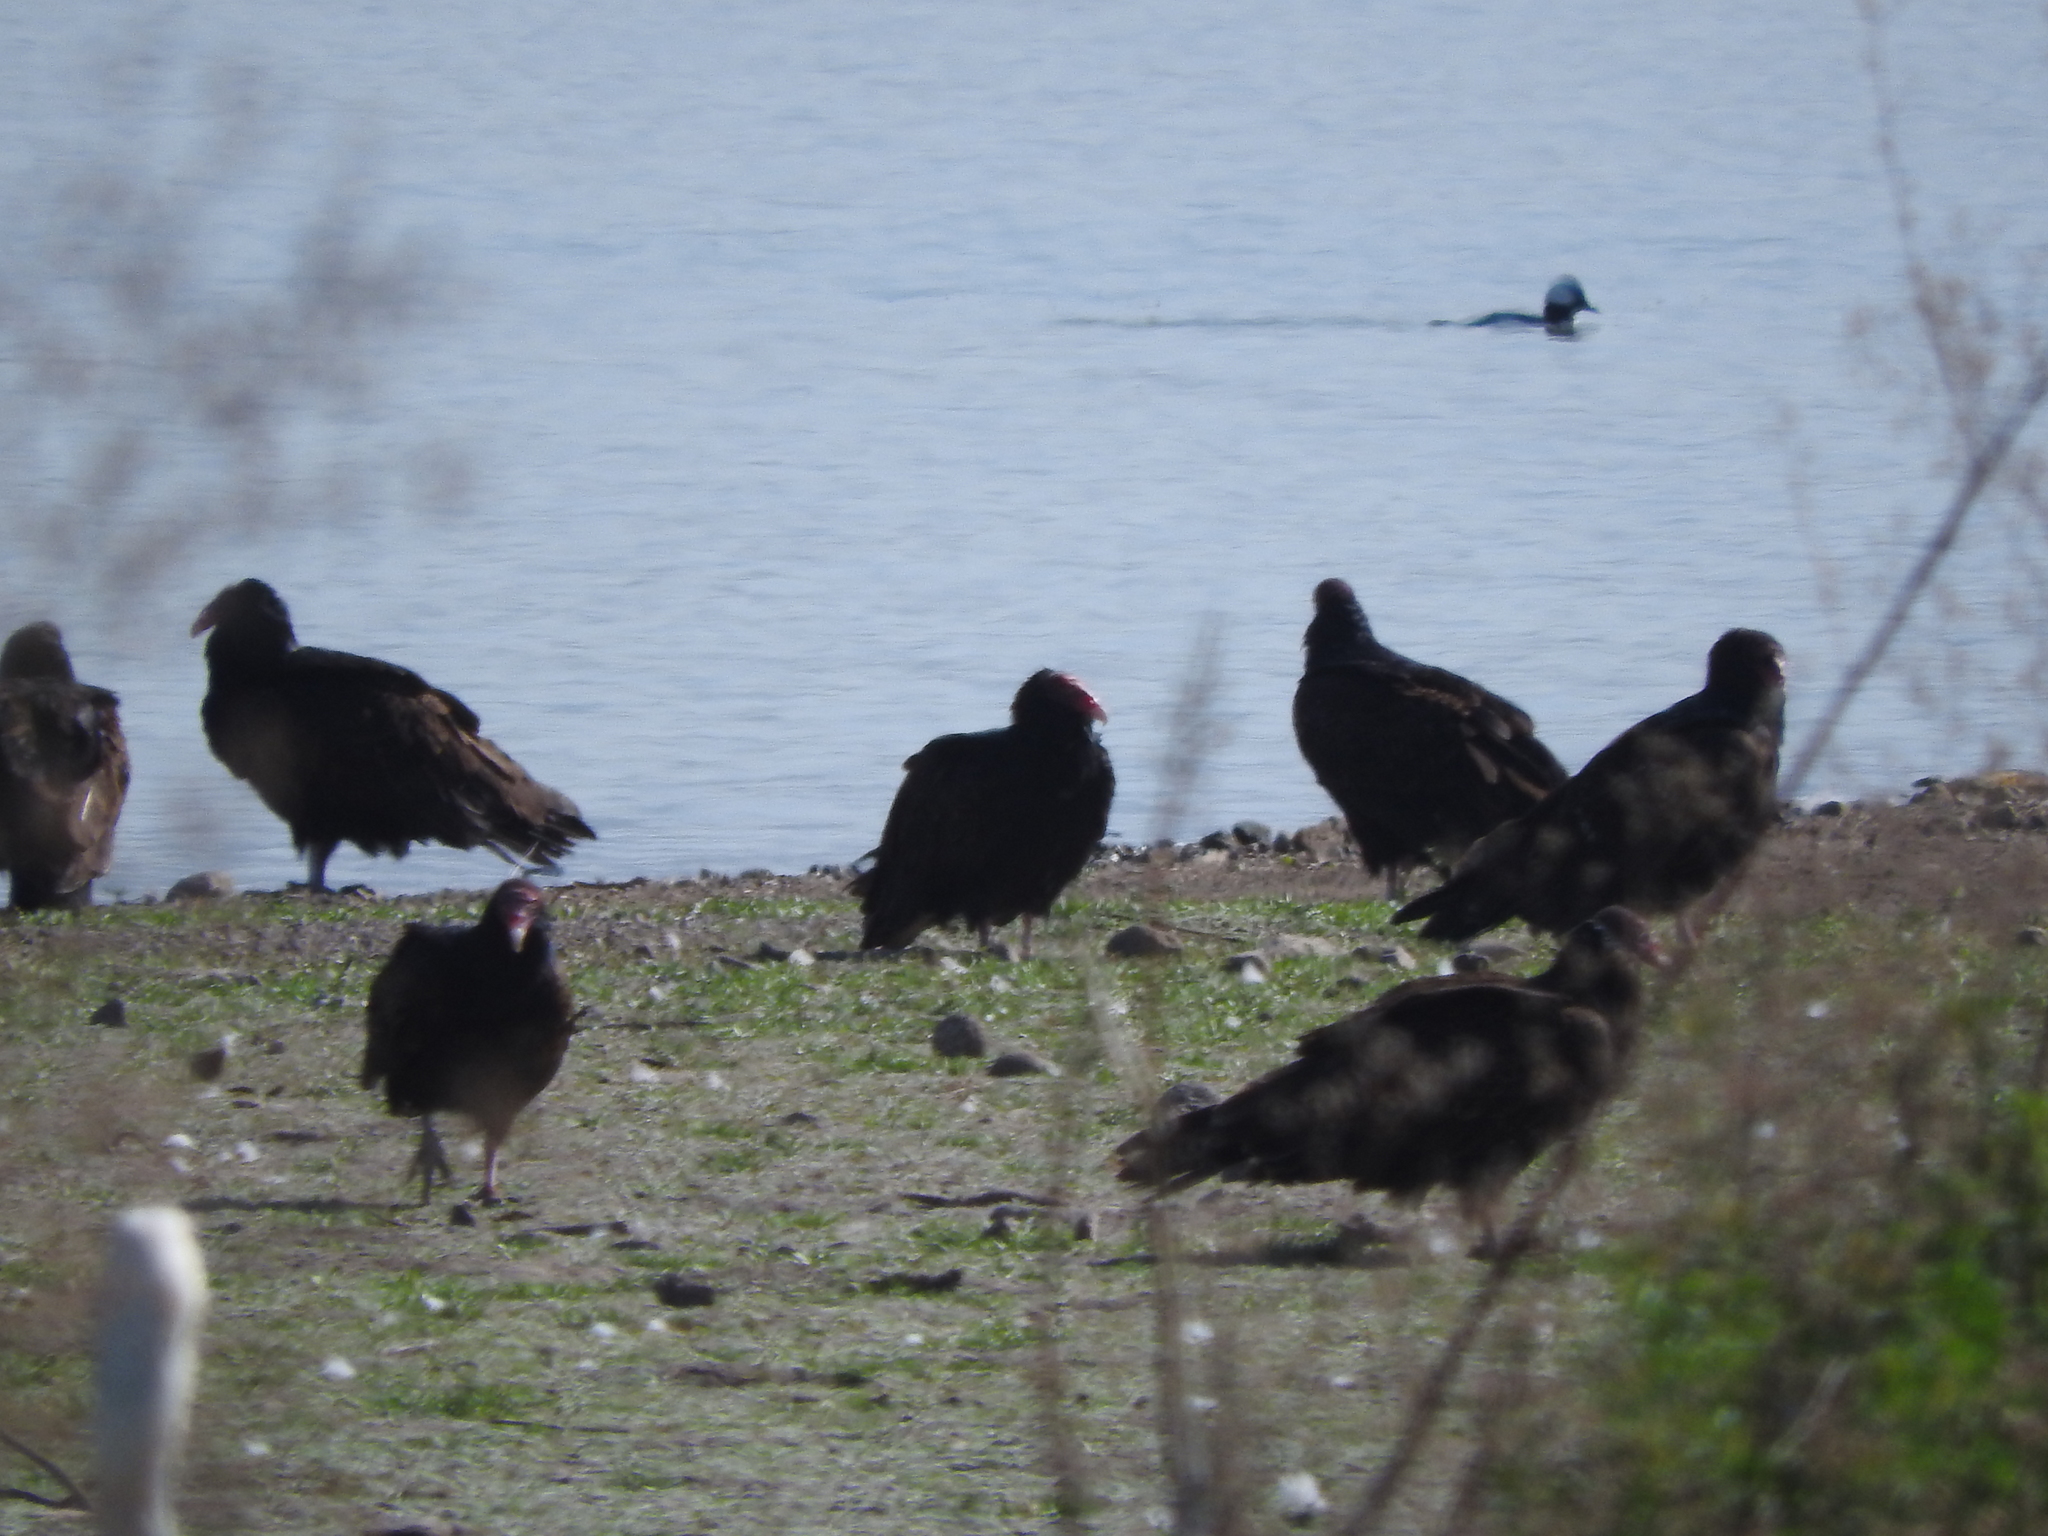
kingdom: Animalia
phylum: Chordata
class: Aves
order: Accipitriformes
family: Cathartidae
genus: Cathartes
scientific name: Cathartes aura
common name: Turkey vulture
